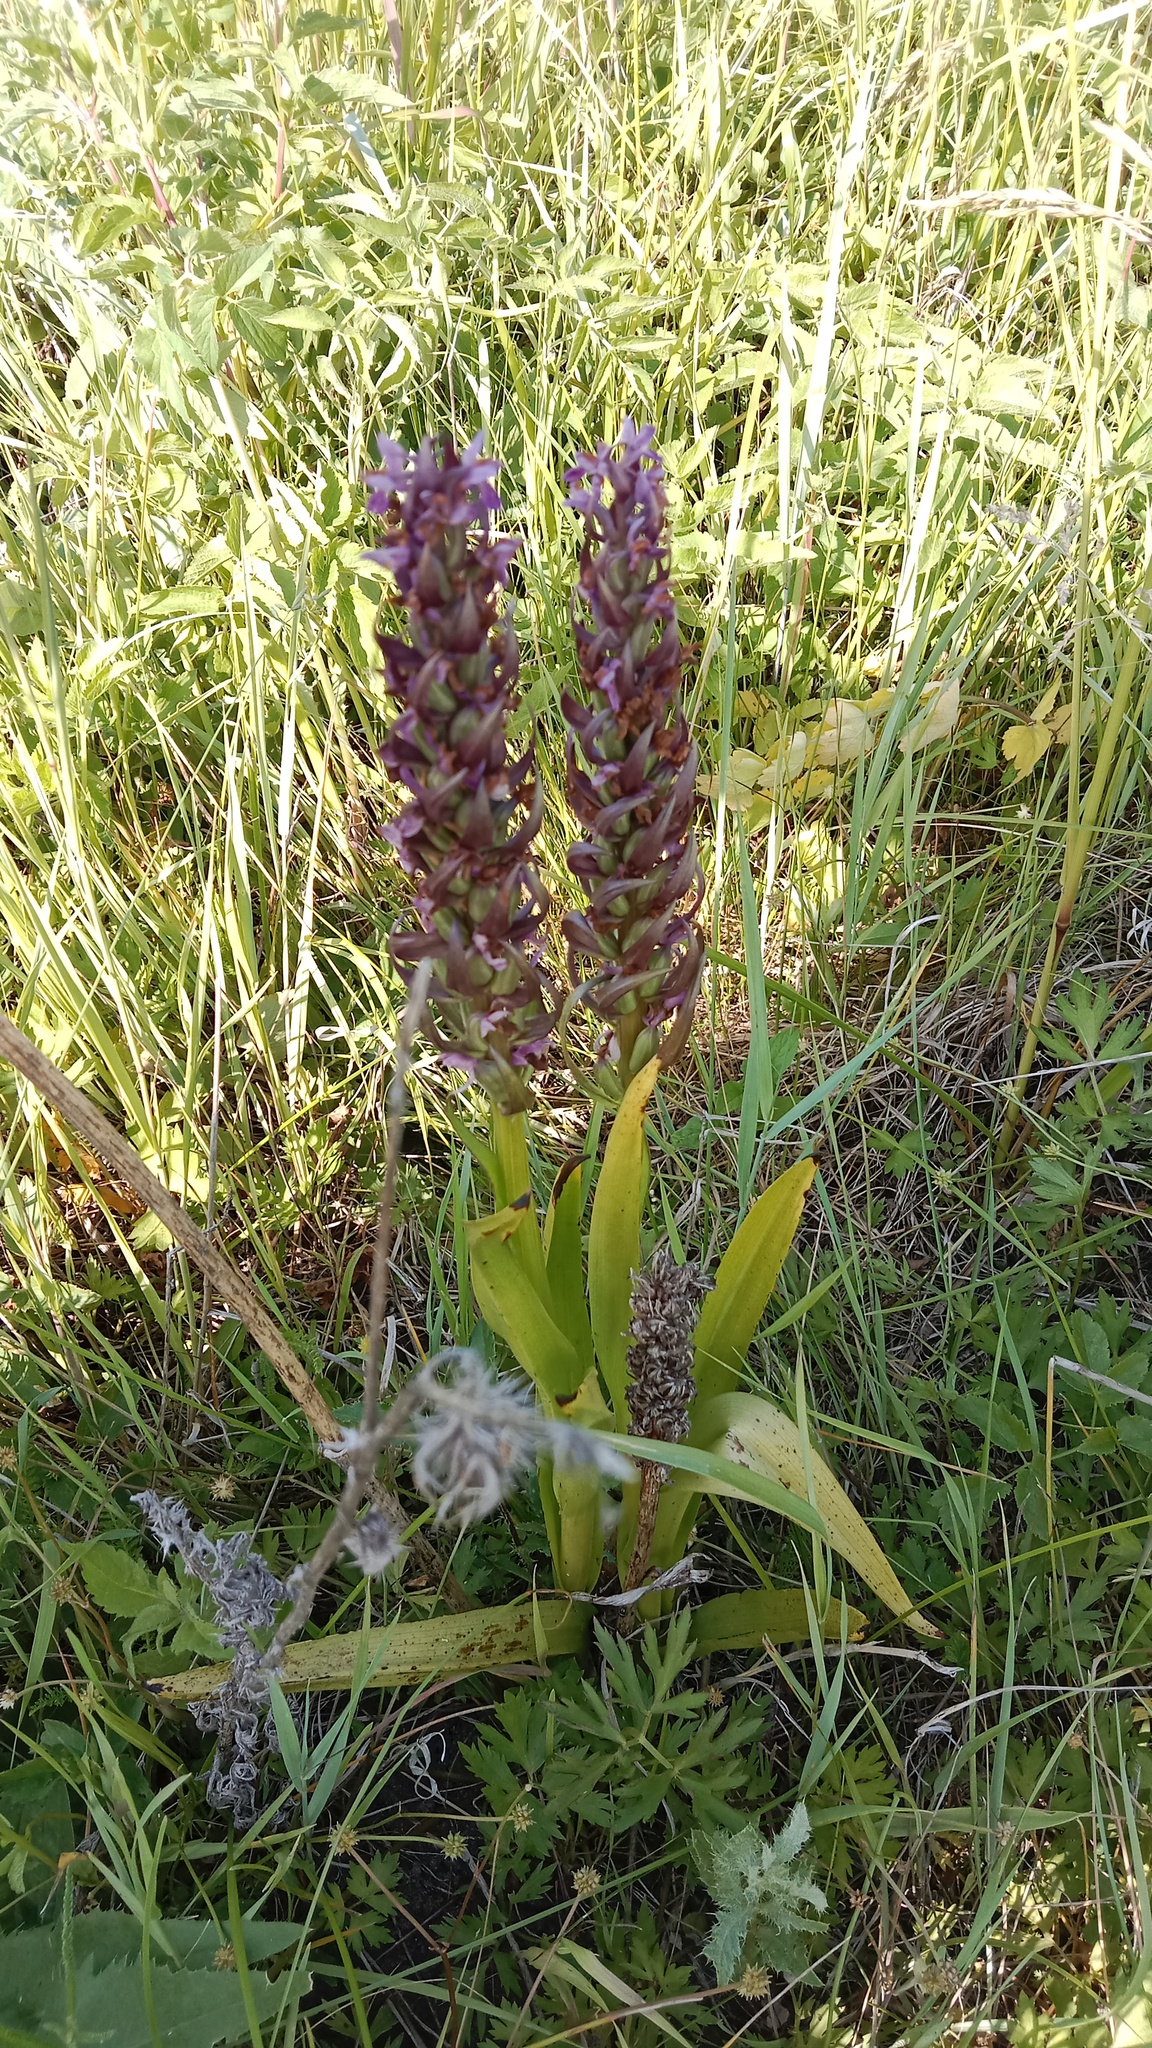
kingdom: Plantae
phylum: Tracheophyta
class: Liliopsida
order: Asparagales
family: Orchidaceae
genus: Dactylorhiza
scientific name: Dactylorhiza incarnata
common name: Early marsh-orchid
